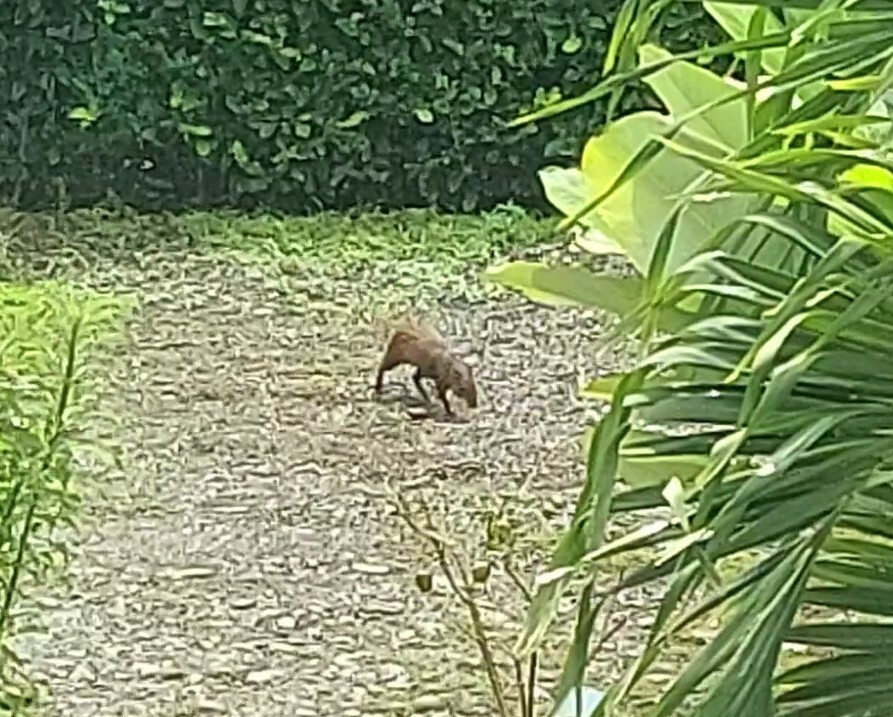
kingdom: Animalia
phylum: Chordata
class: Mammalia
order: Rodentia
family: Dasyproctidae
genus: Dasyprocta
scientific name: Dasyprocta punctata
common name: Central american agouti
